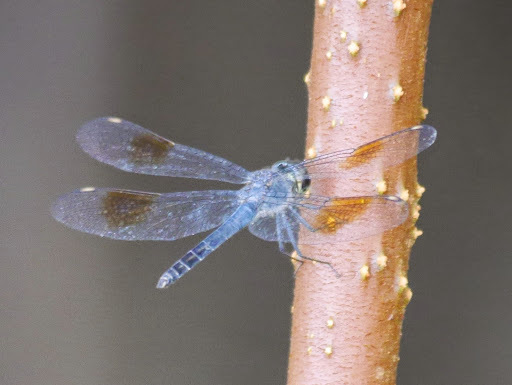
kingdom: Animalia
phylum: Arthropoda
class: Insecta
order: Odonata
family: Libellulidae
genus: Parazyxomma
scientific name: Parazyxomma flavicans
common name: Banded duskdarter
